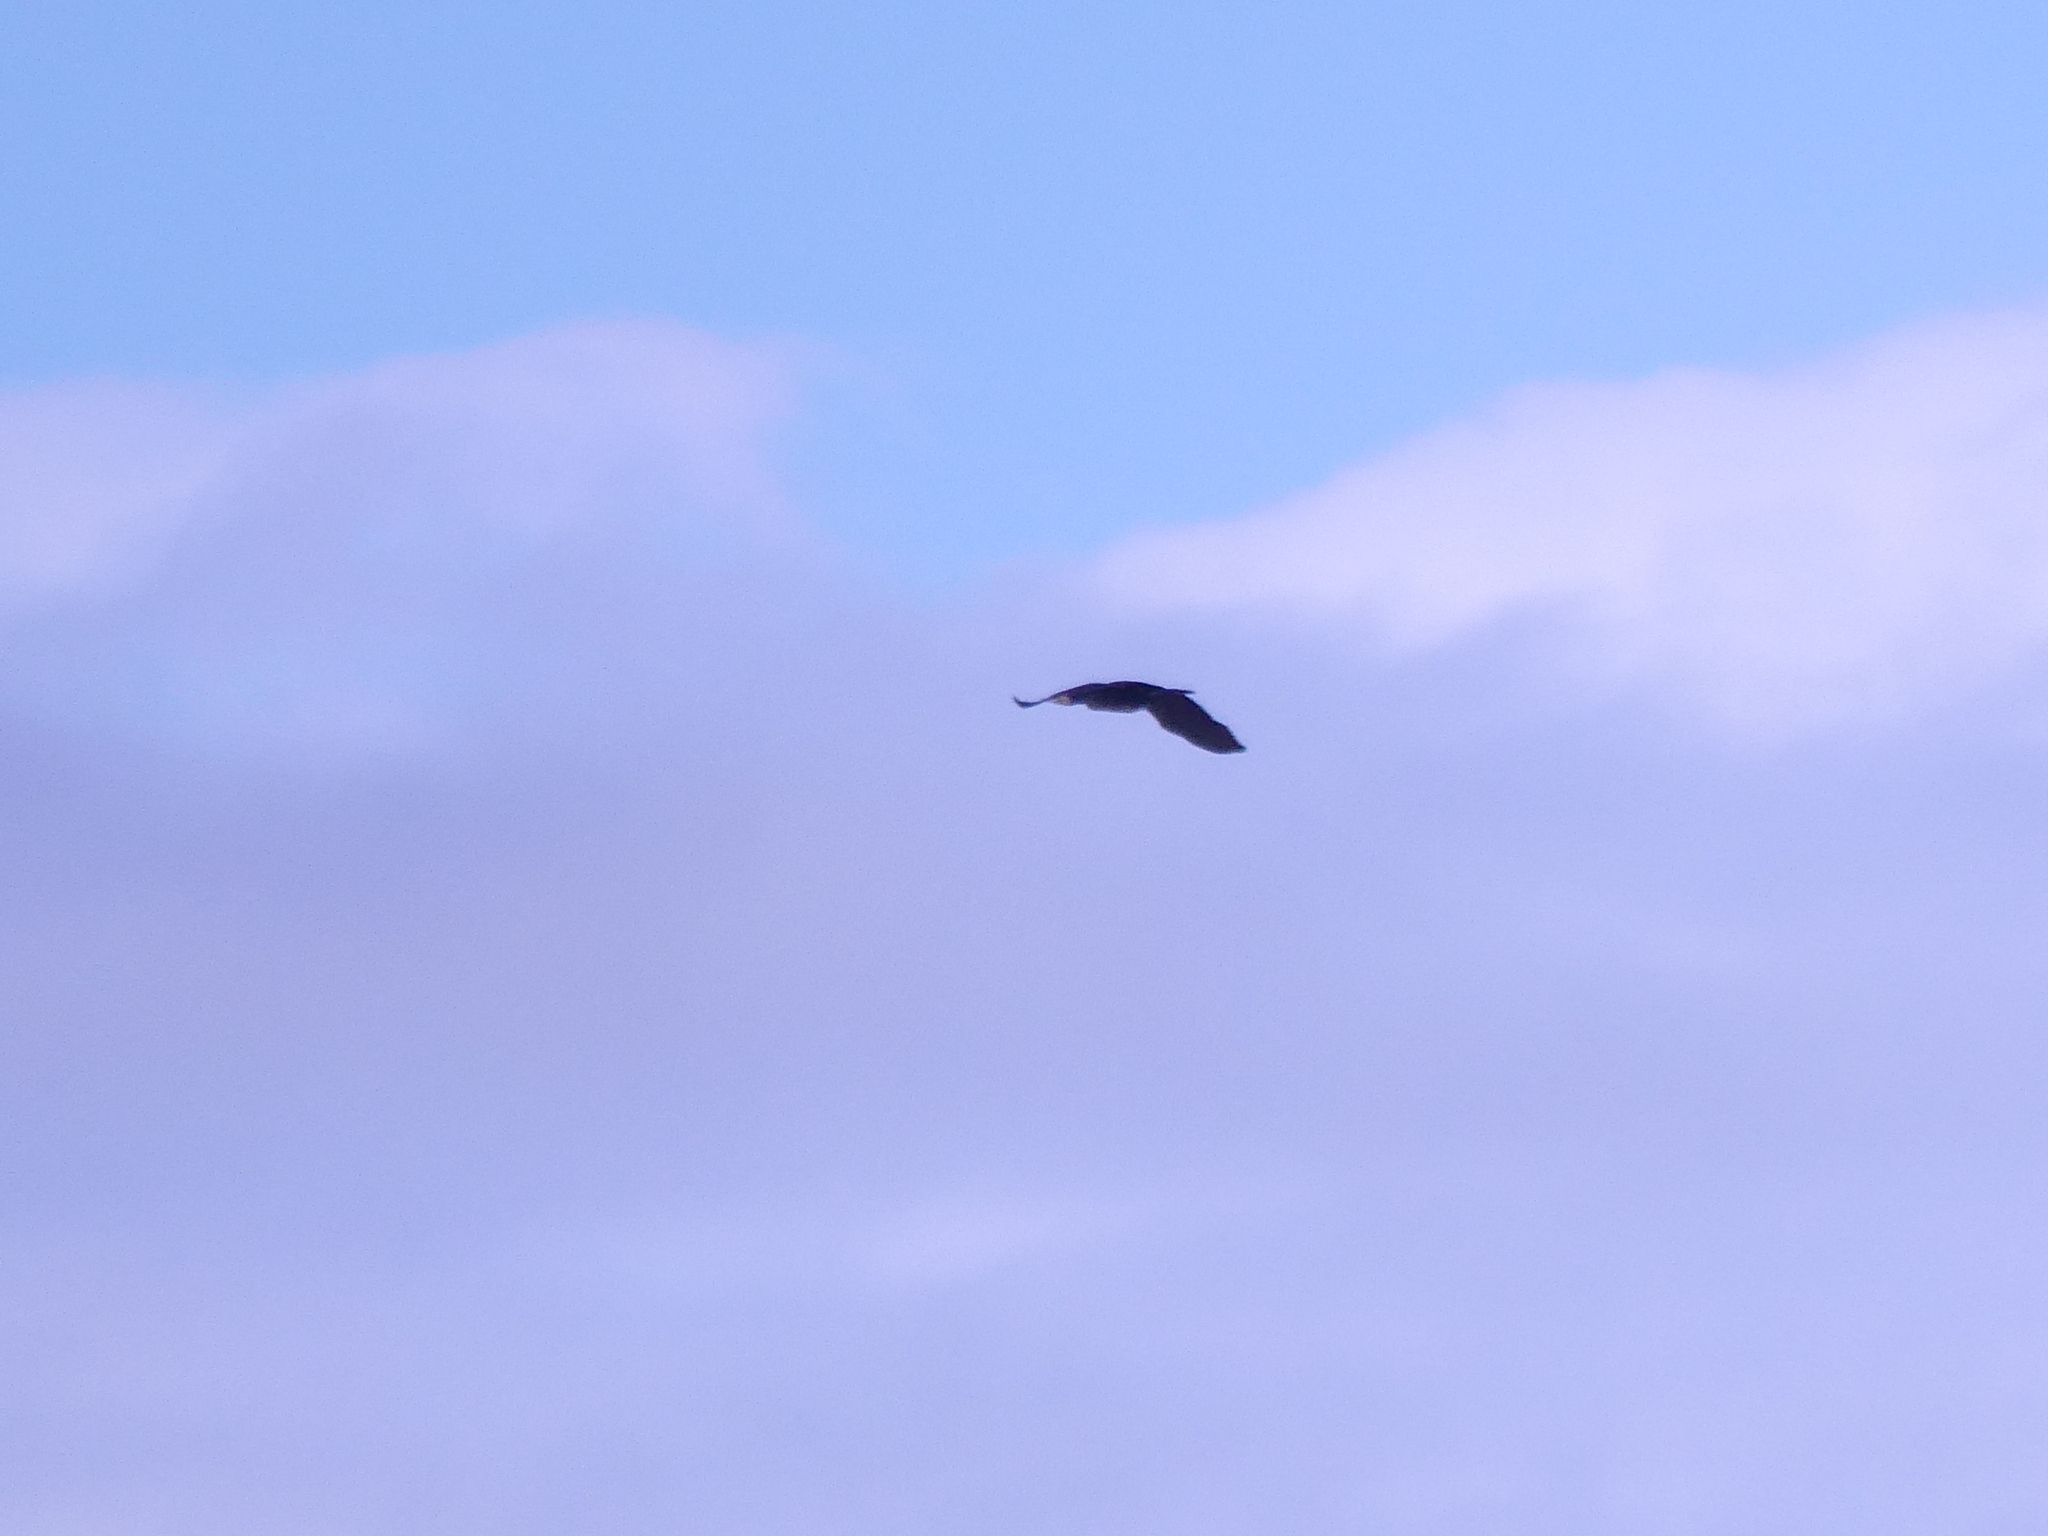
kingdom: Animalia
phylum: Chordata
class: Aves
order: Suliformes
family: Phalacrocoracidae
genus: Phalacrocorax
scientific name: Phalacrocorax carbo
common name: Great cormorant
